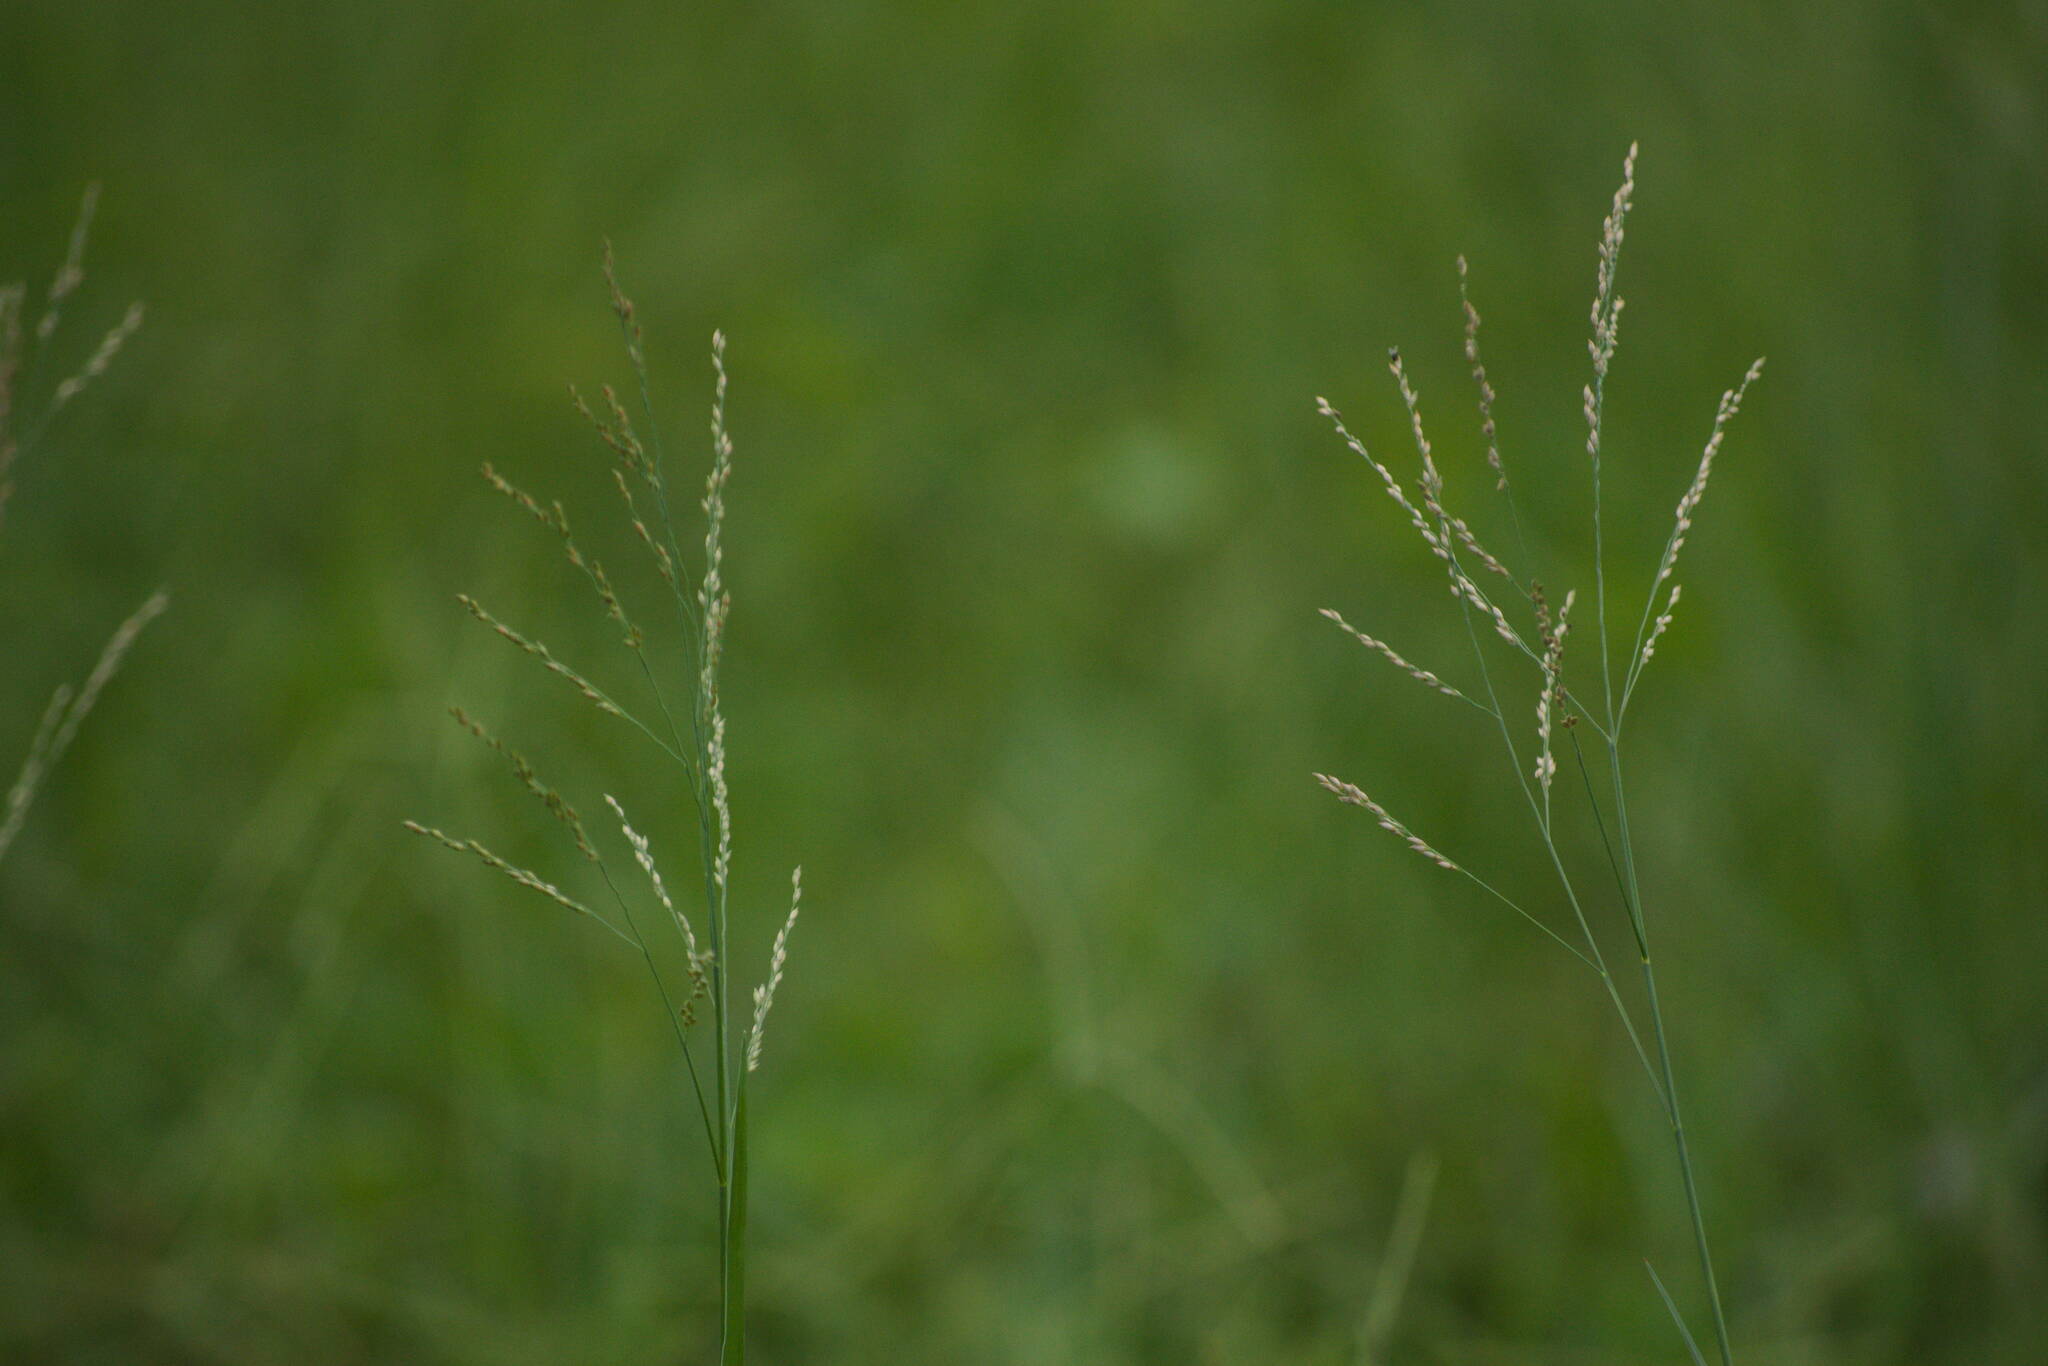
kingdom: Plantae
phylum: Tracheophyta
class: Liliopsida
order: Poales
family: Poaceae
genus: Panicum
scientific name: Panicum repens
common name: Torpedo grass
